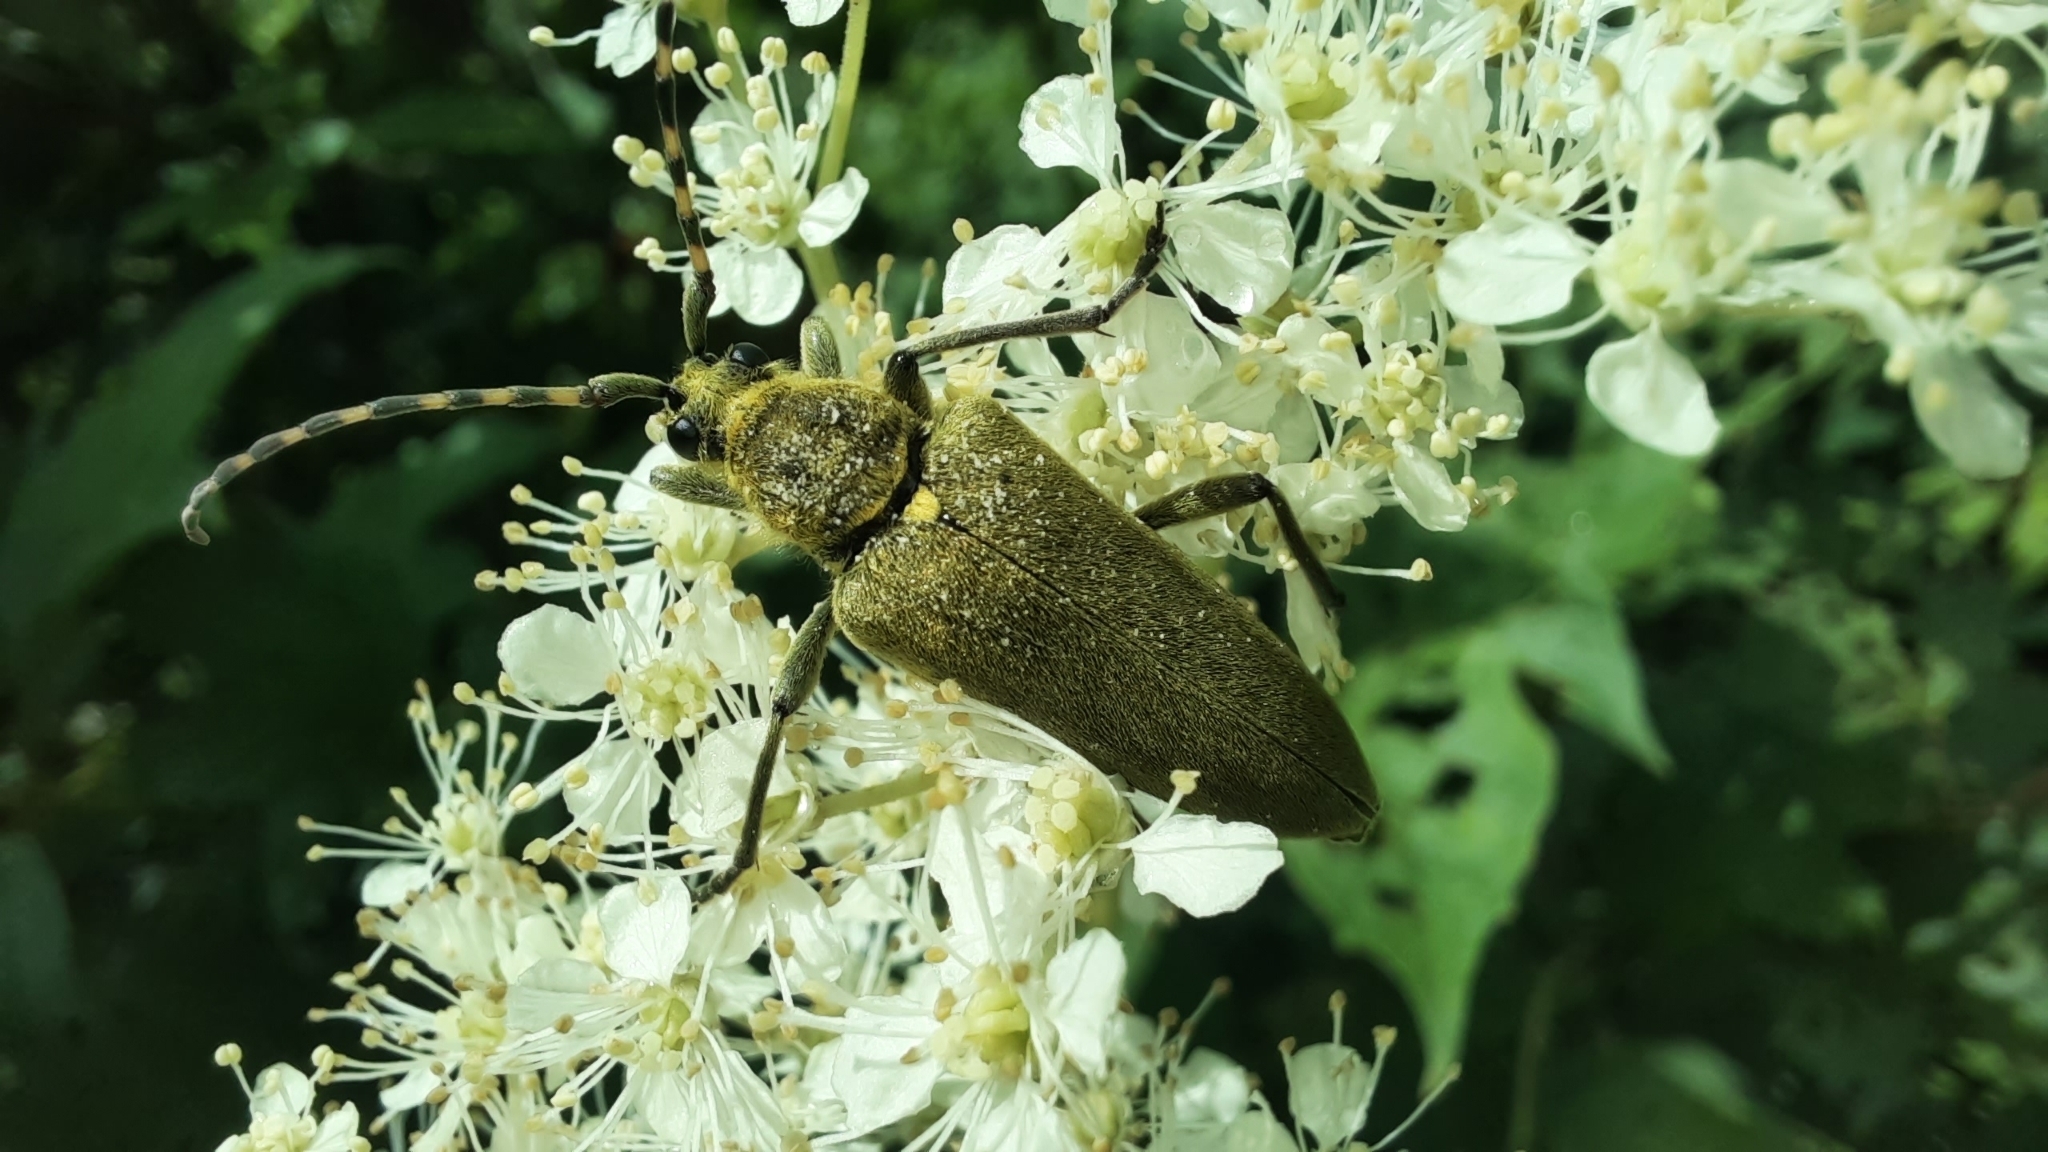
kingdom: Animalia
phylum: Arthropoda
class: Insecta
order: Coleoptera
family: Cerambycidae
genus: Lepturobosca
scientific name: Lepturobosca virens
